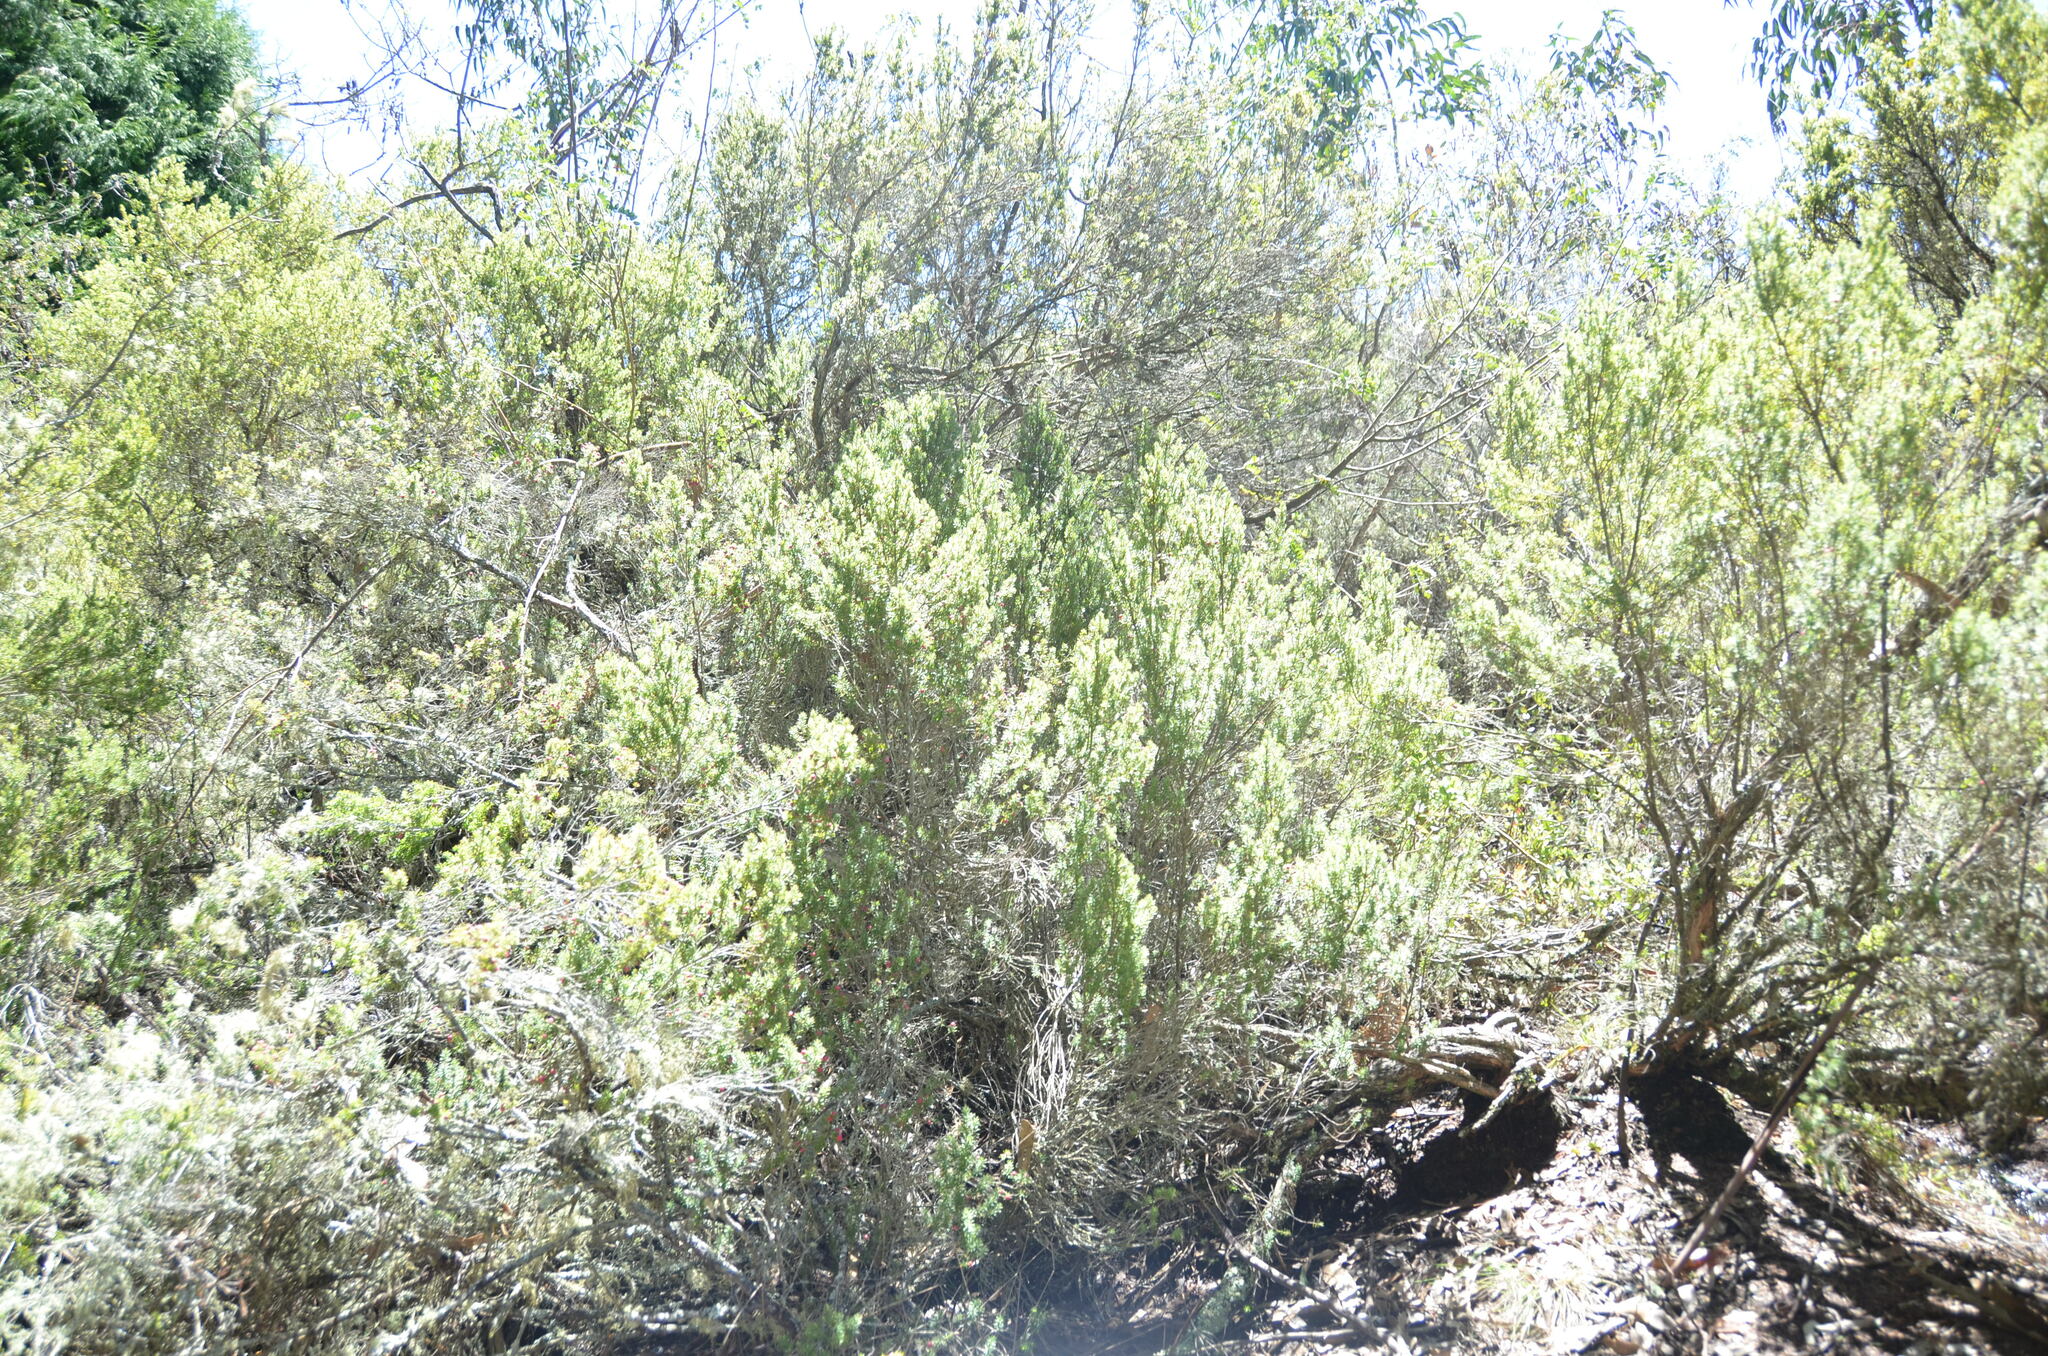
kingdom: Plantae
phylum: Tracheophyta
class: Magnoliopsida
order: Ericales
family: Ericaceae
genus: Leptecophylla
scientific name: Leptecophylla tameiameiae
